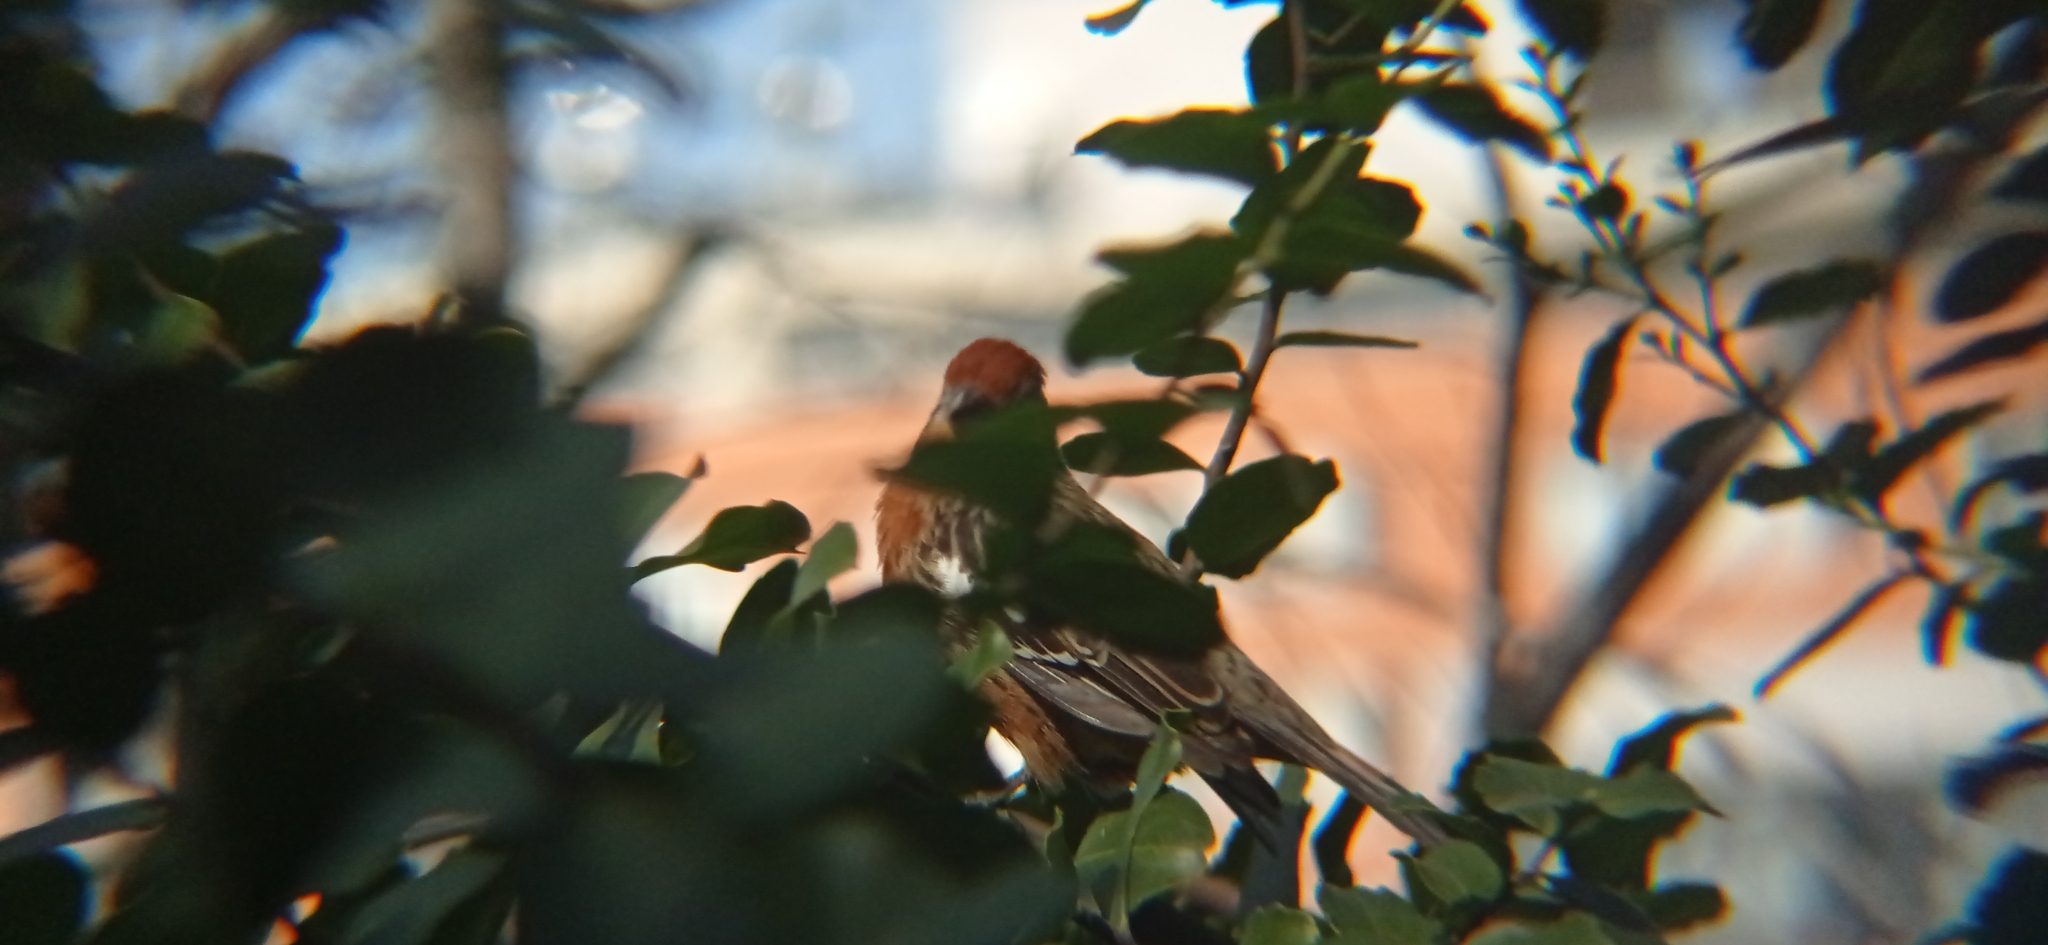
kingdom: Animalia
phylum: Chordata
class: Aves
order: Passeriformes
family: Cotingidae
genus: Phytotoma
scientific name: Phytotoma rara
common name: Rufous-tailed plantcutter
